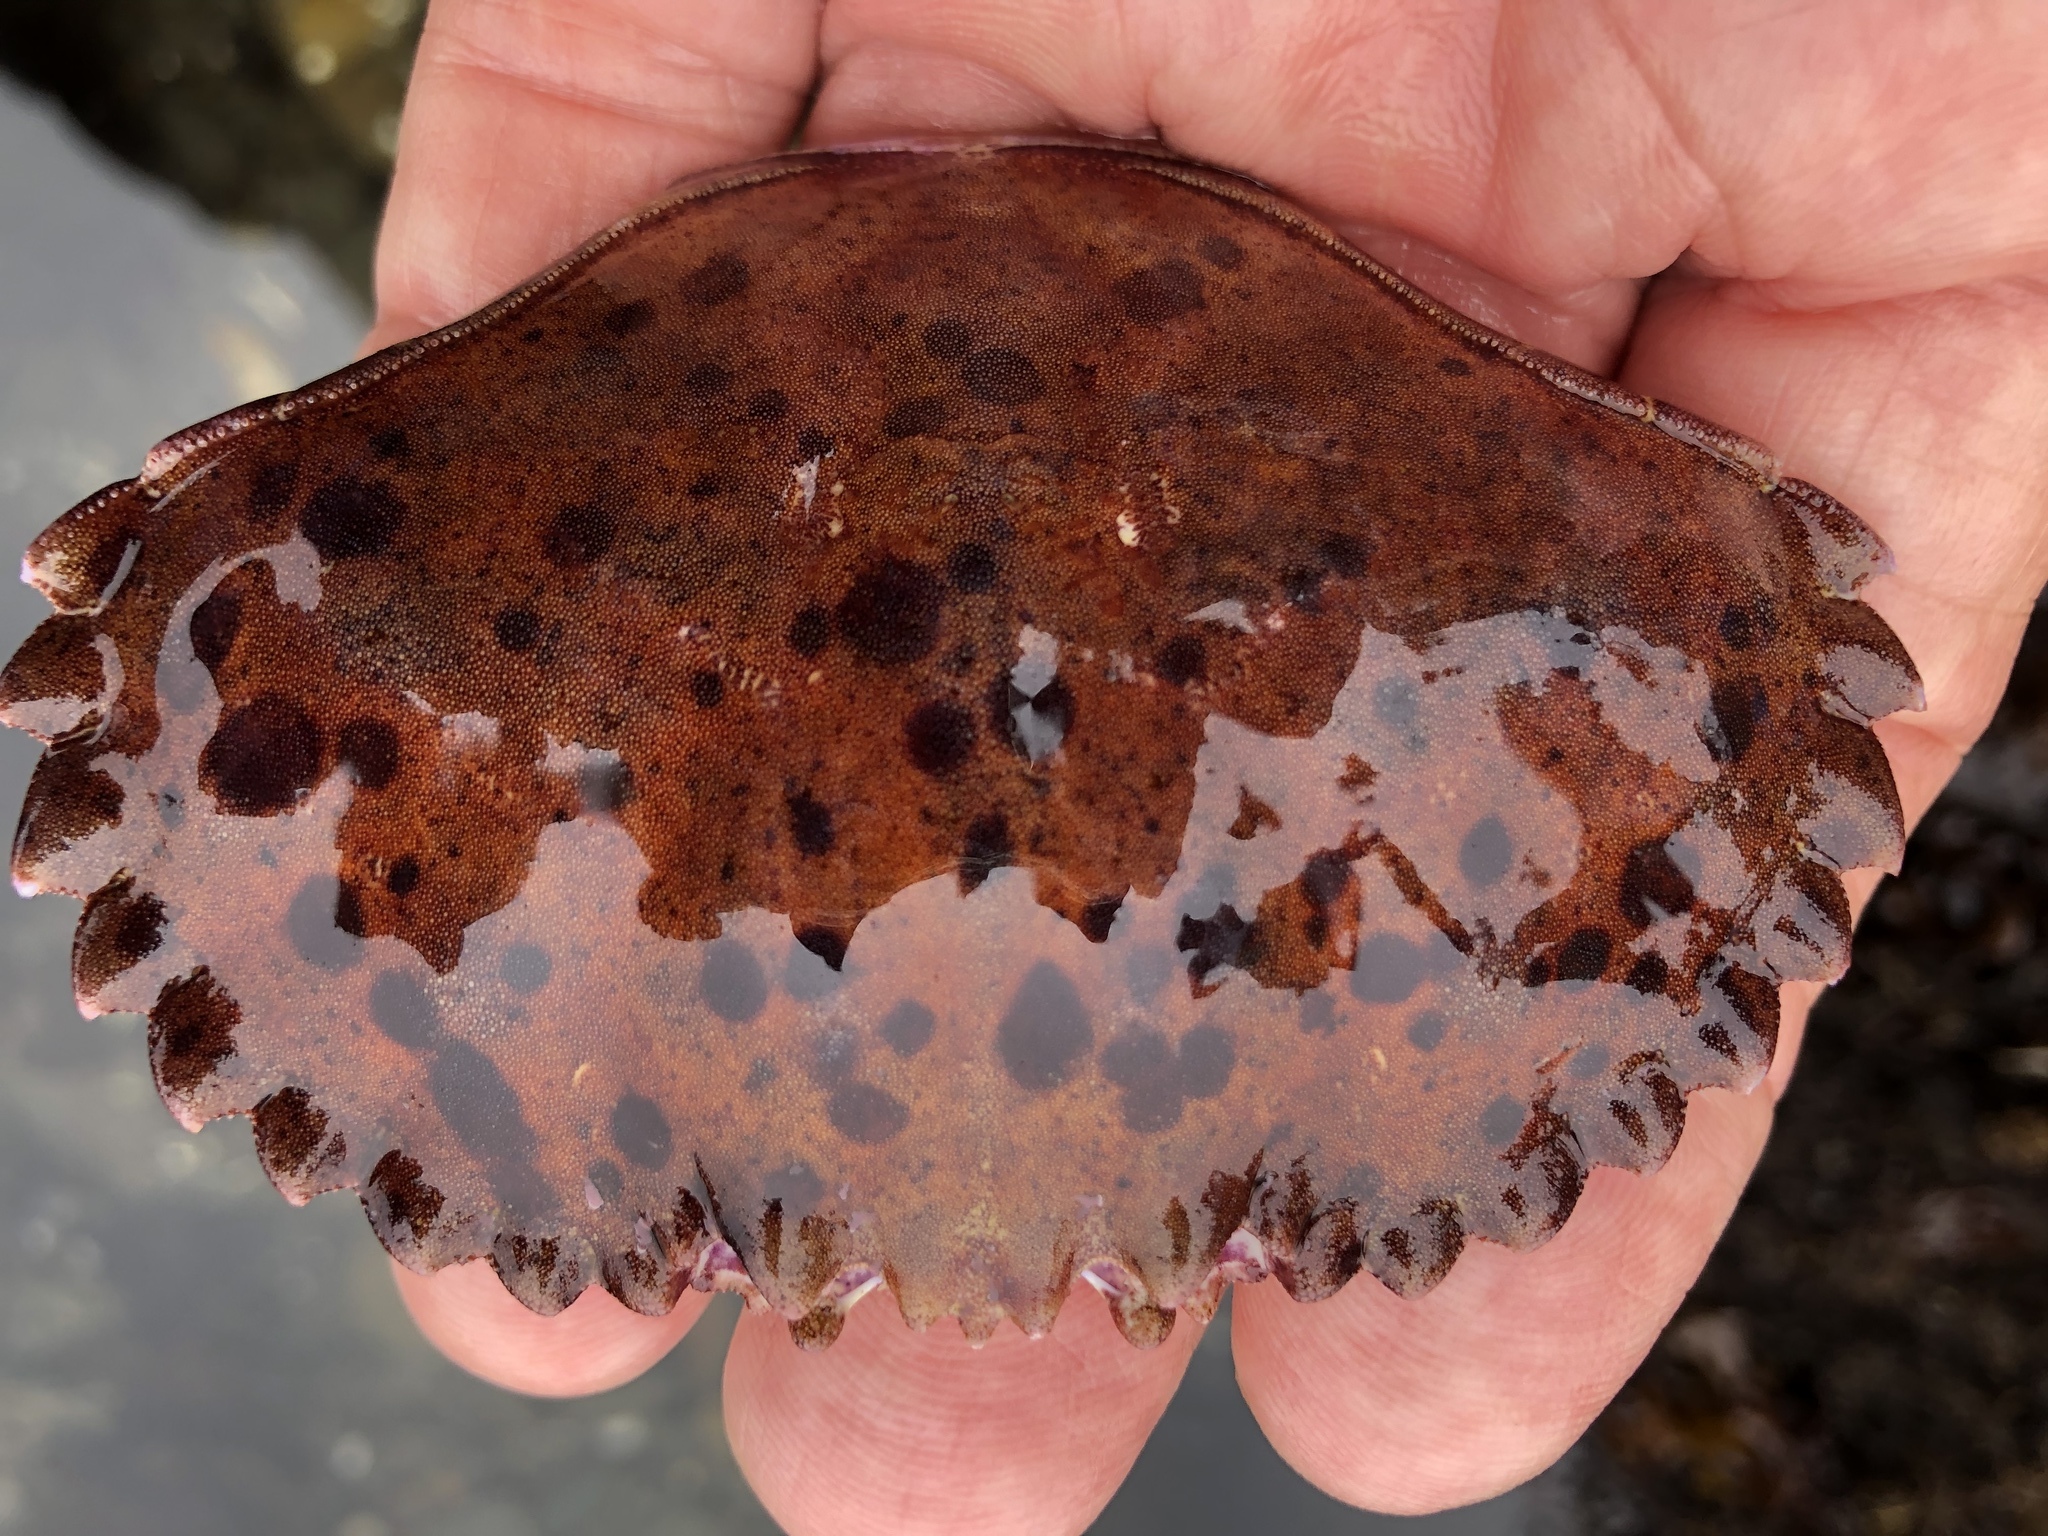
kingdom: Animalia
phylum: Arthropoda
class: Malacostraca
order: Decapoda
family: Cancridae
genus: Romaleon
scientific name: Romaleon antennarium
